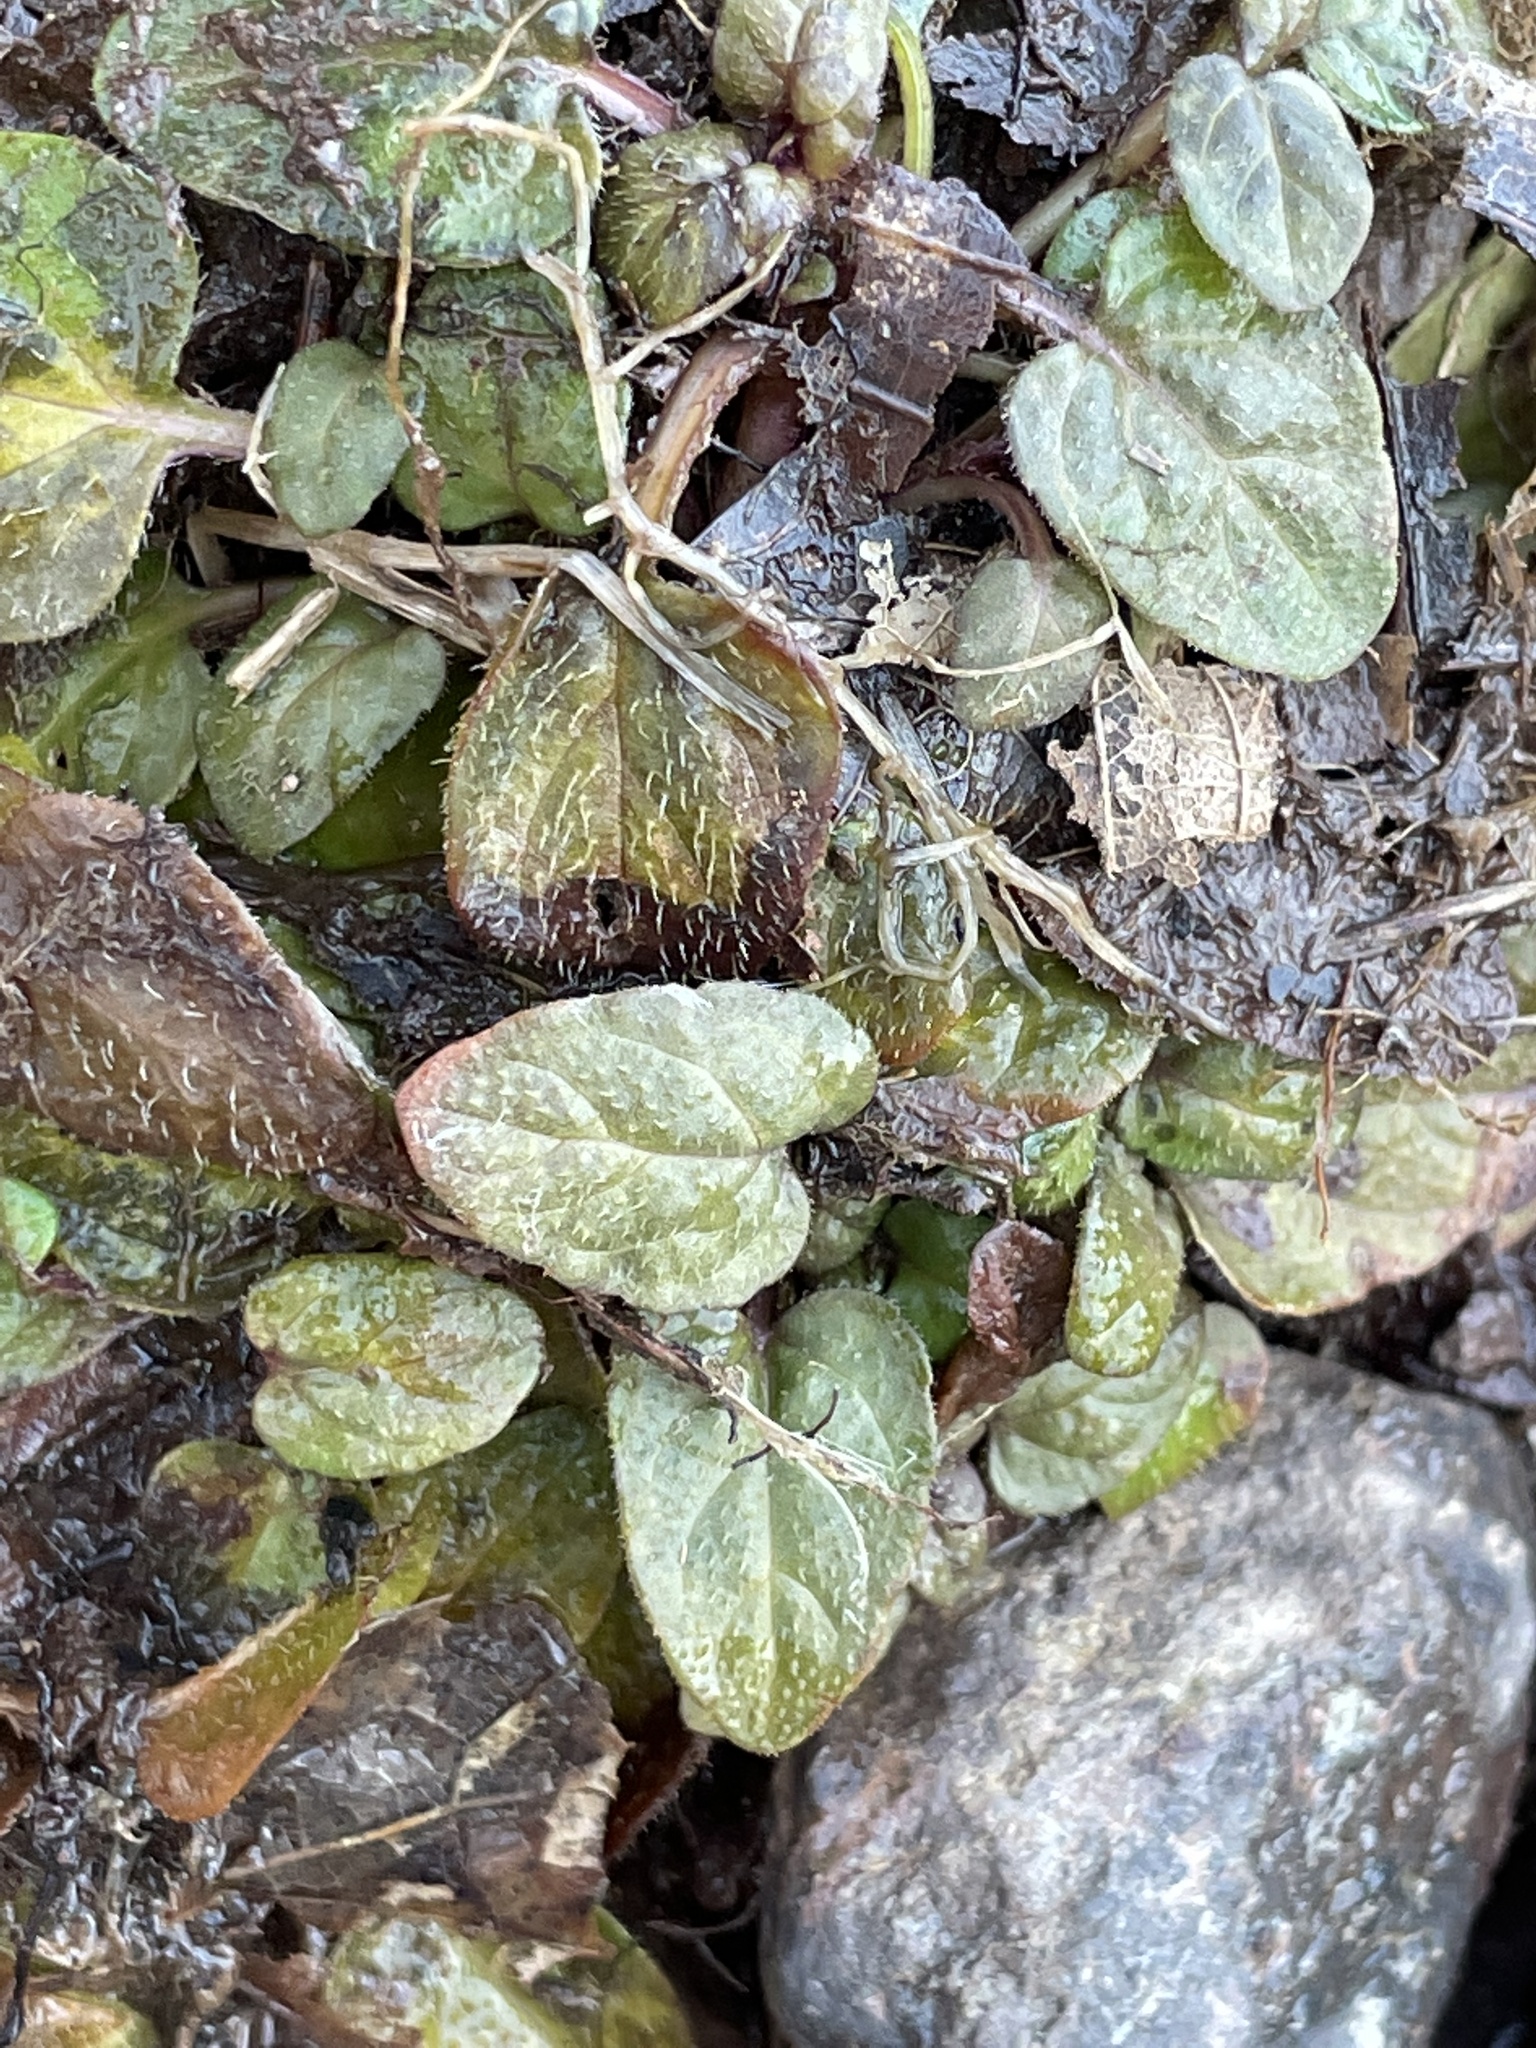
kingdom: Plantae
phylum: Tracheophyta
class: Magnoliopsida
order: Lamiales
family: Lamiaceae
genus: Prunella
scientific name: Prunella vulgaris
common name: Heal-all
